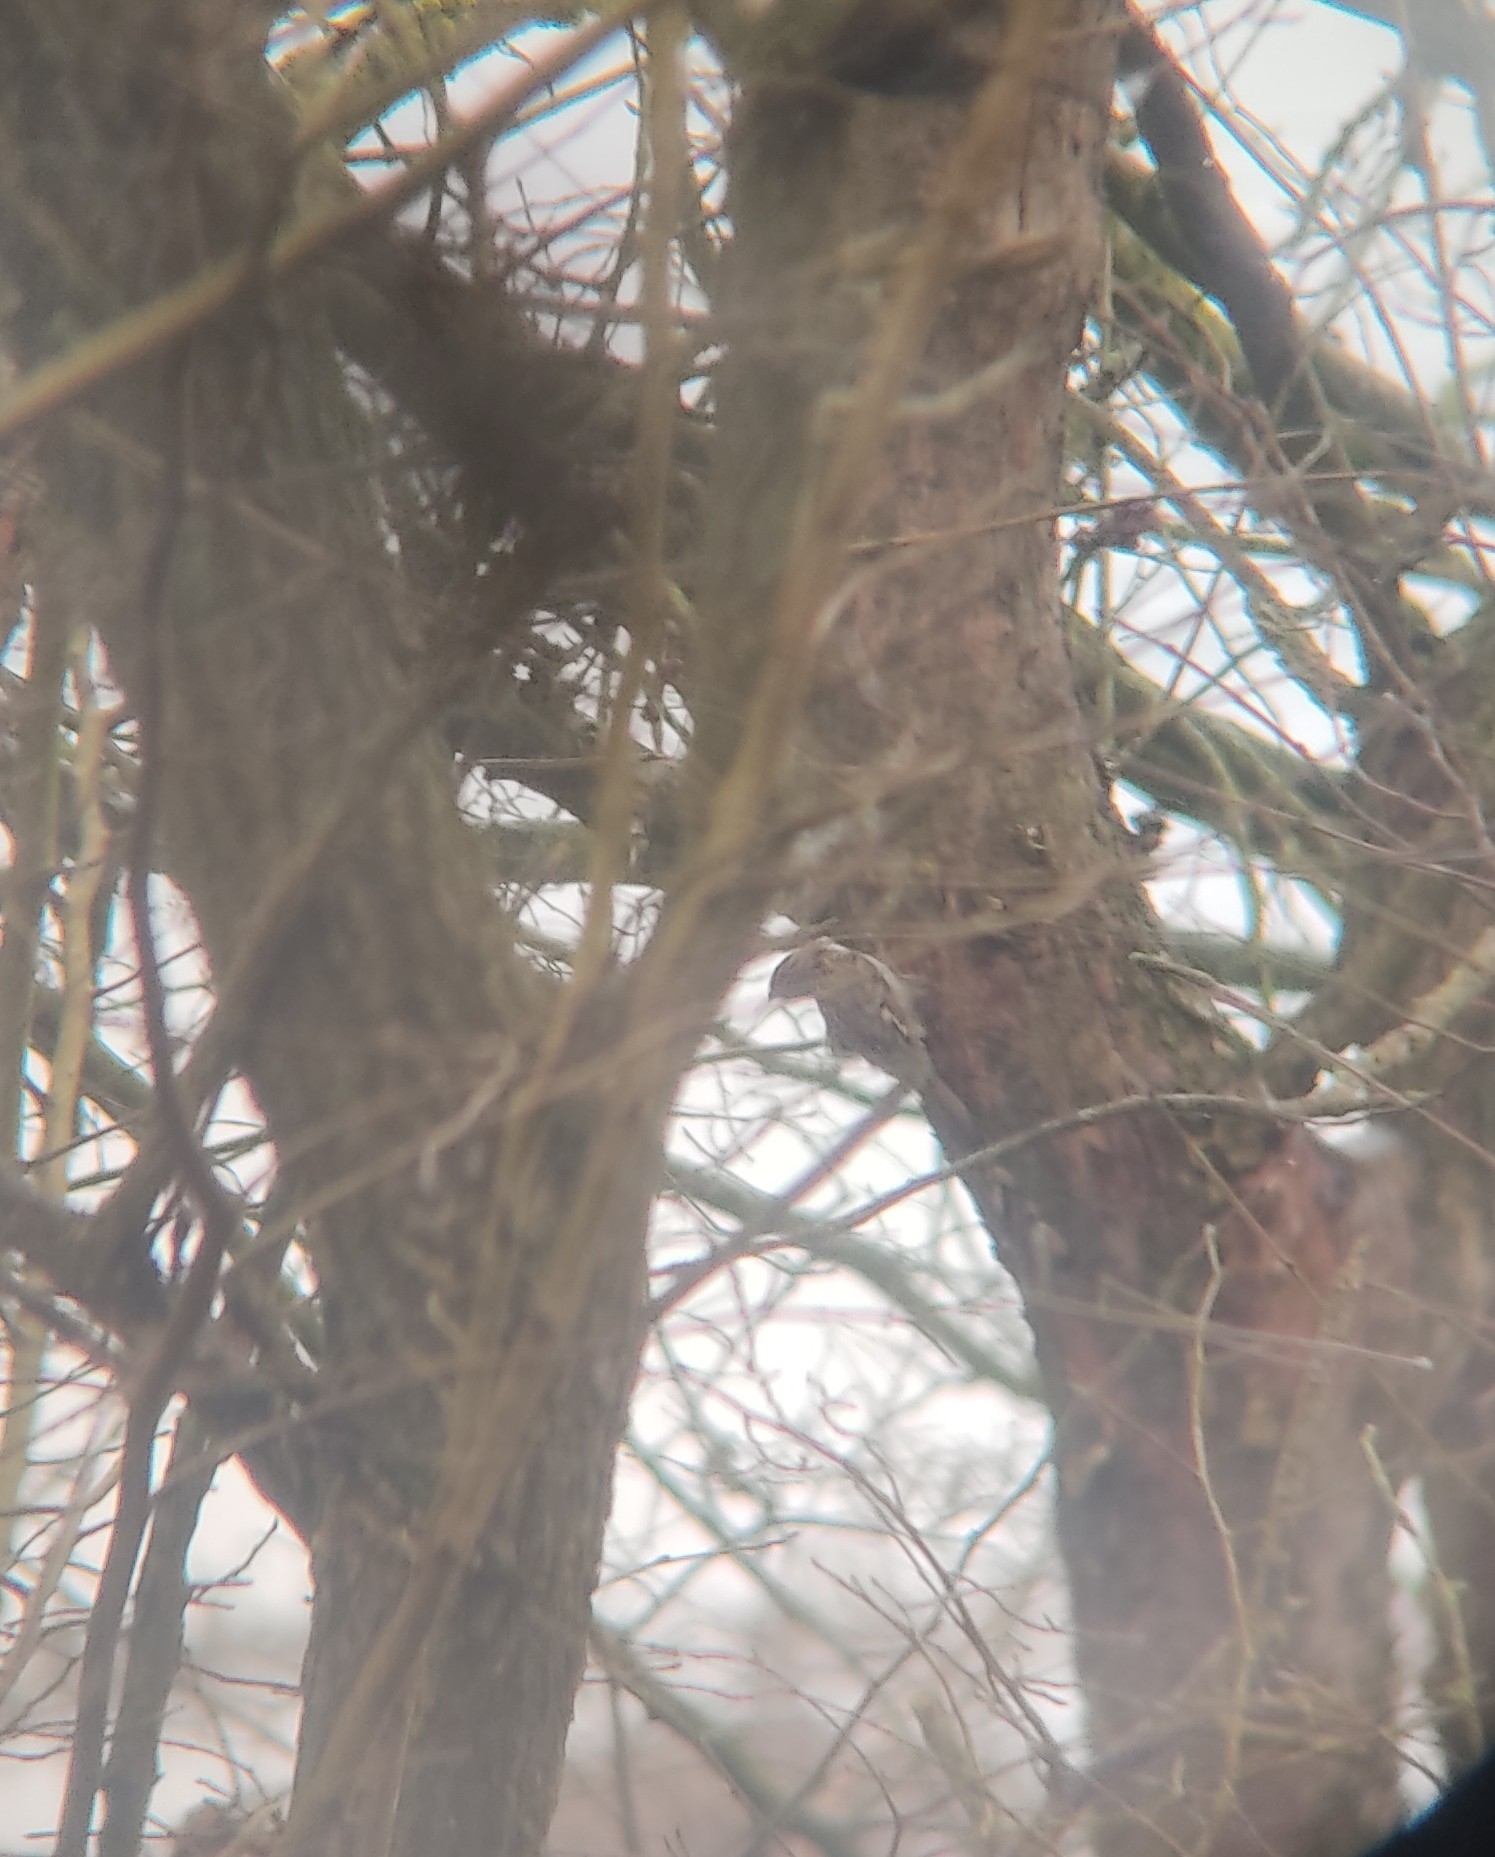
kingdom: Animalia
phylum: Chordata
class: Aves
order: Passeriformes
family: Certhiidae
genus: Certhia
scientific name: Certhia brachydactyla
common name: Short-toed treecreeper
